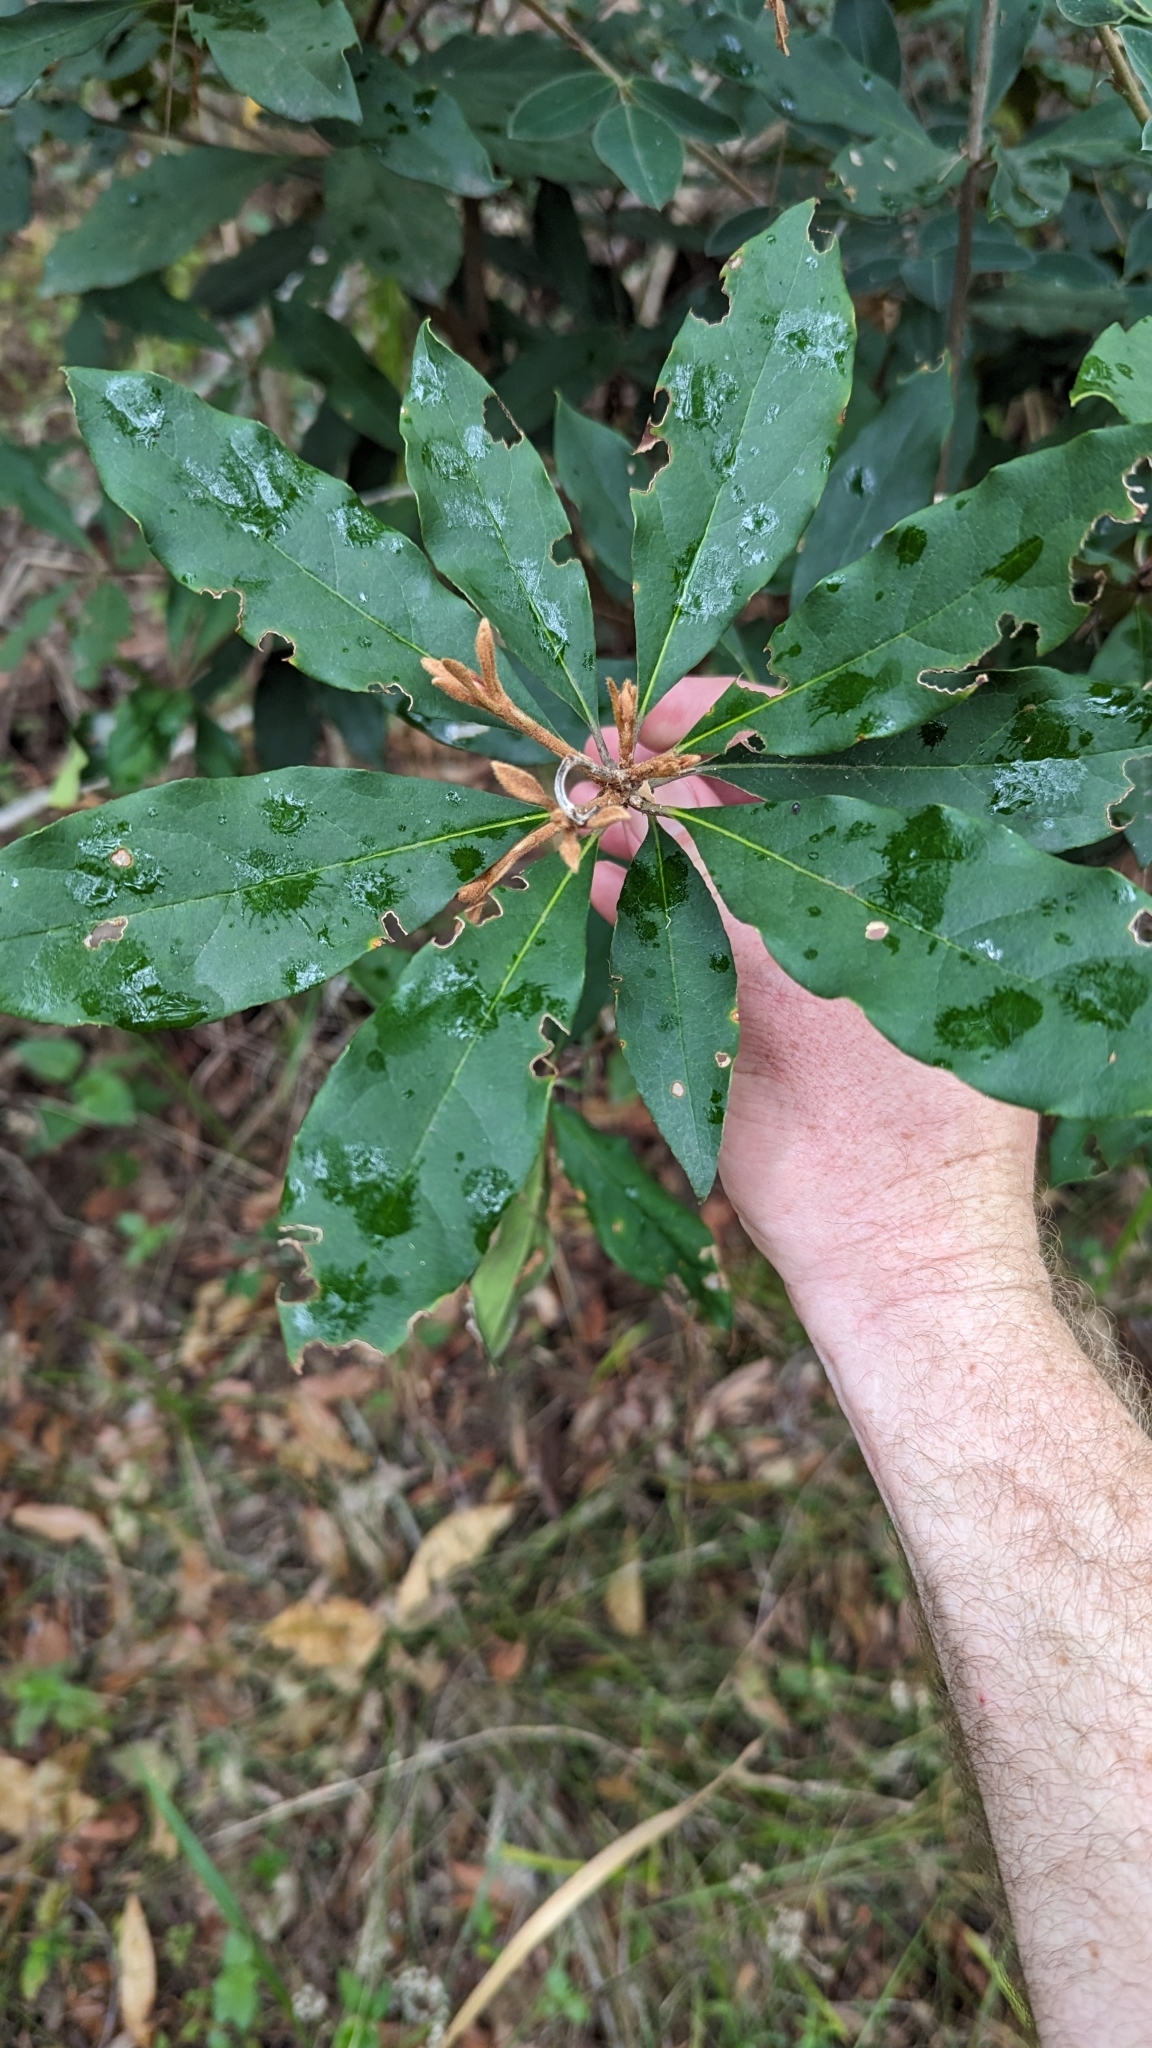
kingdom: Plantae
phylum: Tracheophyta
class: Magnoliopsida
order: Apiales
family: Pittosporaceae
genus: Pittosporum
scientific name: Pittosporum revolutum
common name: Brisbane-laurel
